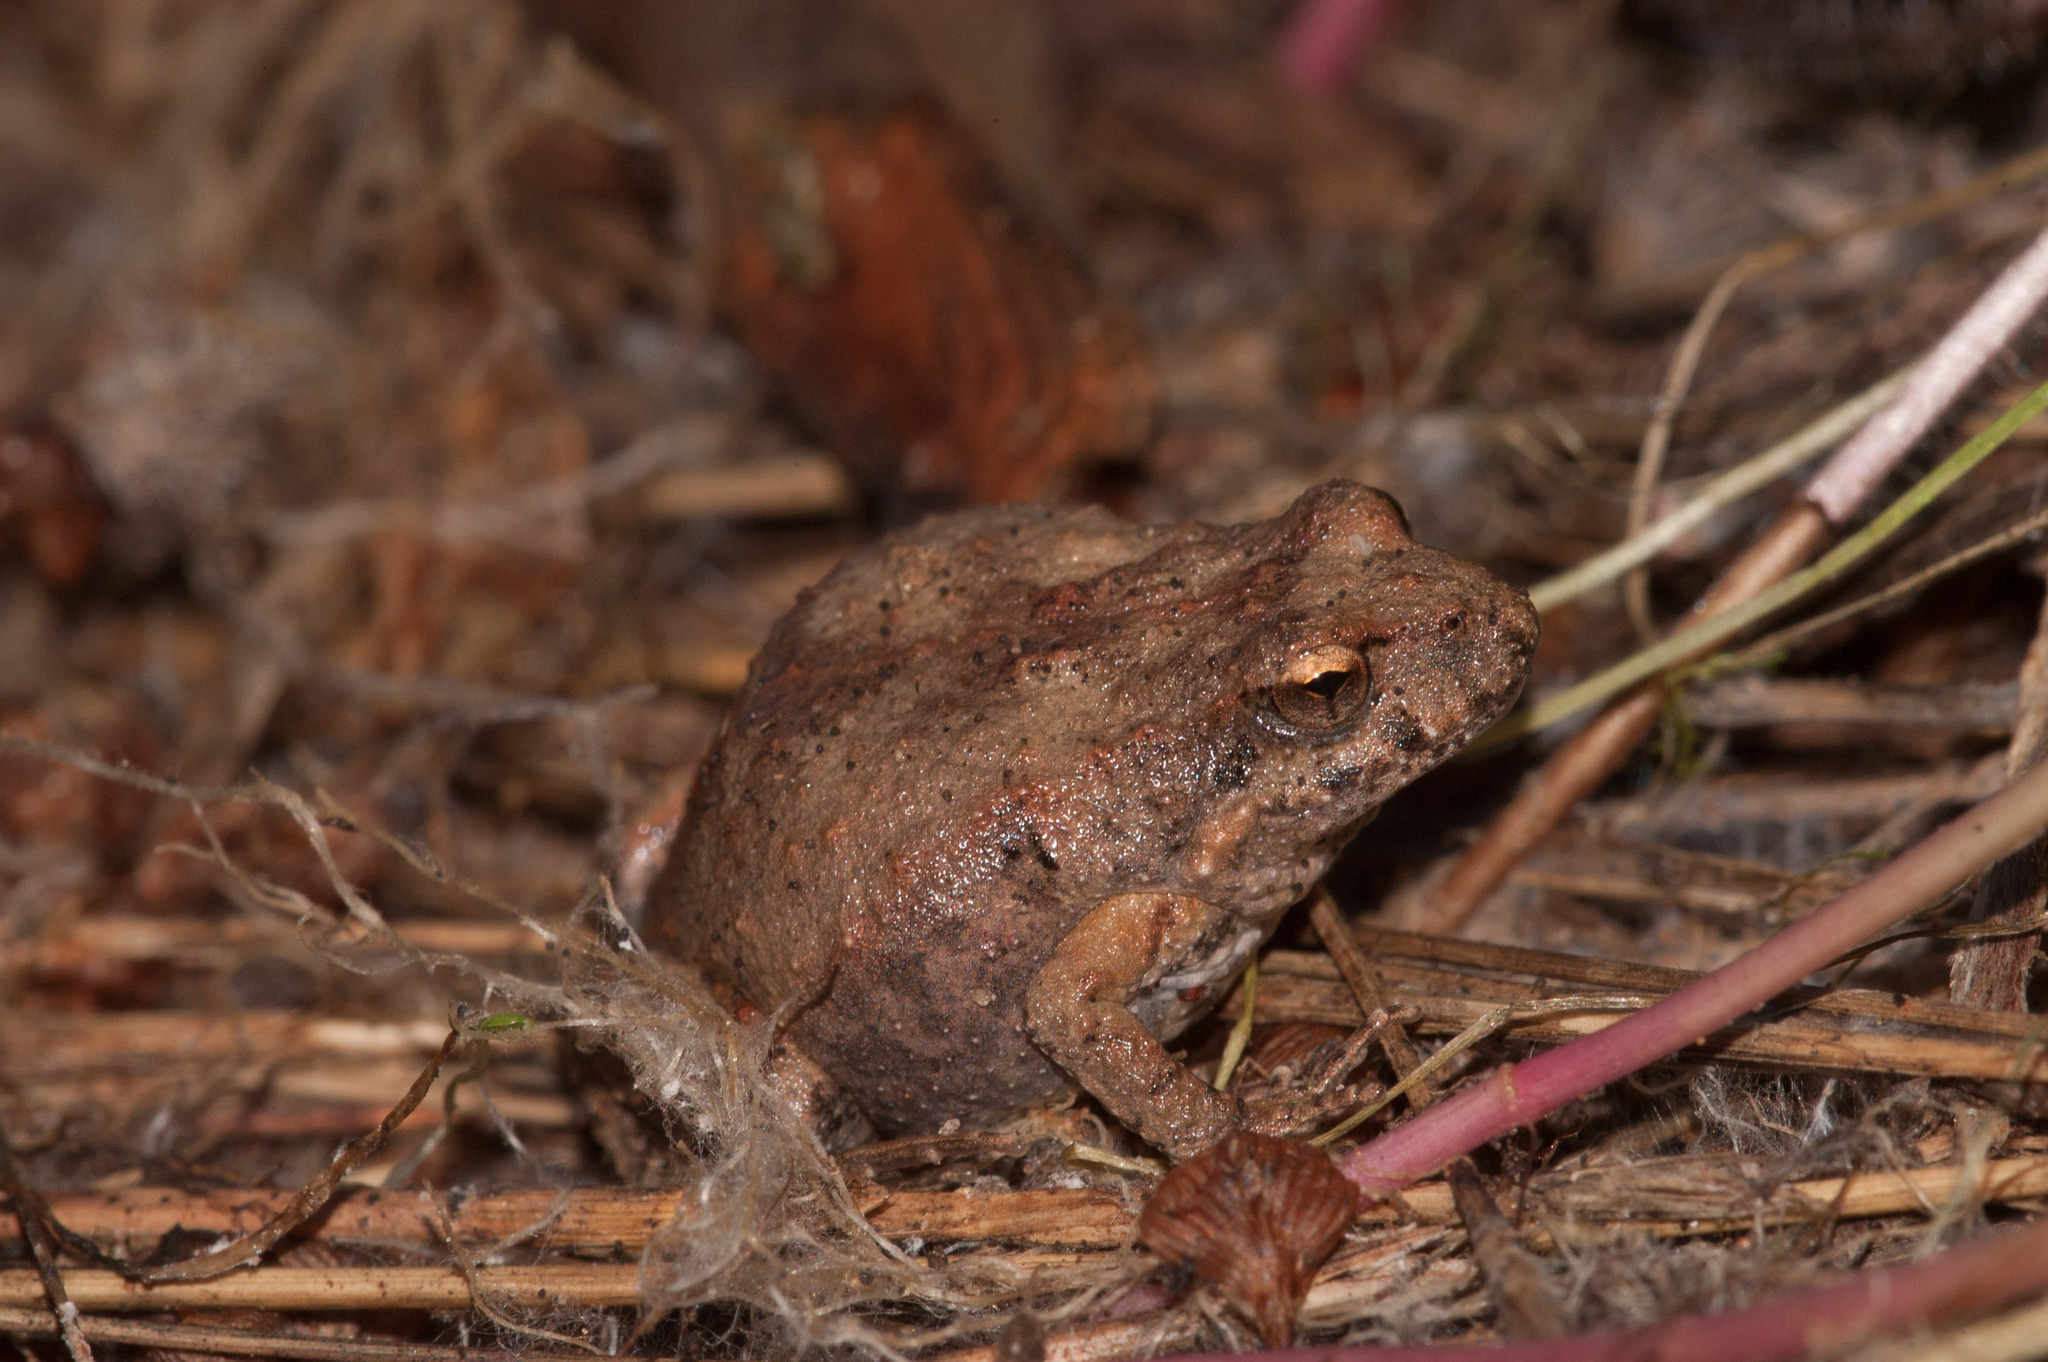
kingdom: Animalia
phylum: Chordata
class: Amphibia
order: Anura
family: Myobatrachidae
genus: Crinia
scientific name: Crinia signifera
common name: Brown froglet
